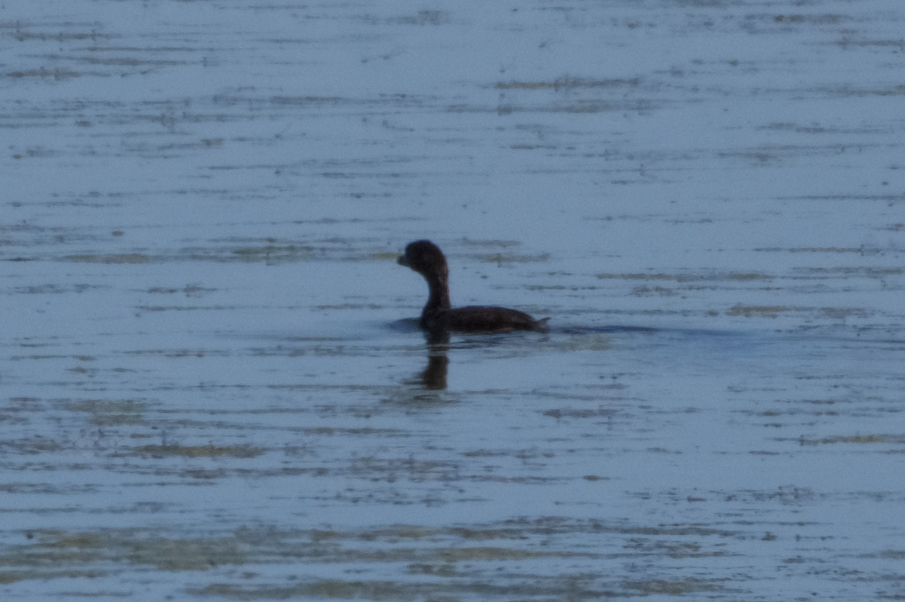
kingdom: Animalia
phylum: Chordata
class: Aves
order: Podicipediformes
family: Podicipedidae
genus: Podilymbus
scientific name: Podilymbus podiceps
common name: Pied-billed grebe
